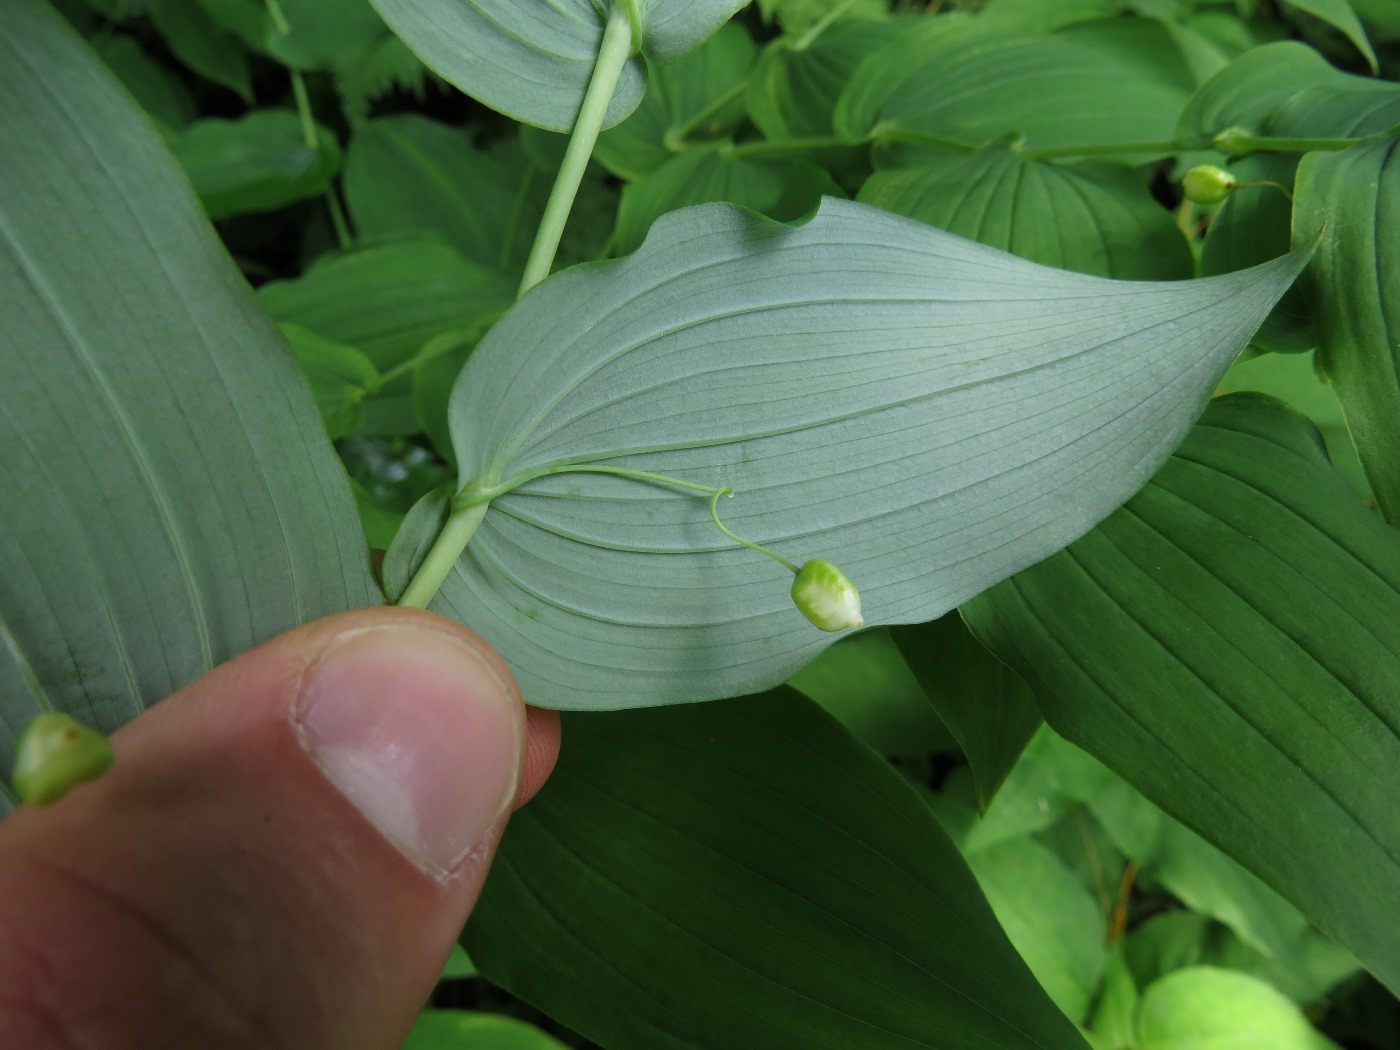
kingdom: Plantae
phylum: Tracheophyta
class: Liliopsida
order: Liliales
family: Liliaceae
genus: Streptopus
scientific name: Streptopus amplexifolius
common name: Clasp twisted stalk
